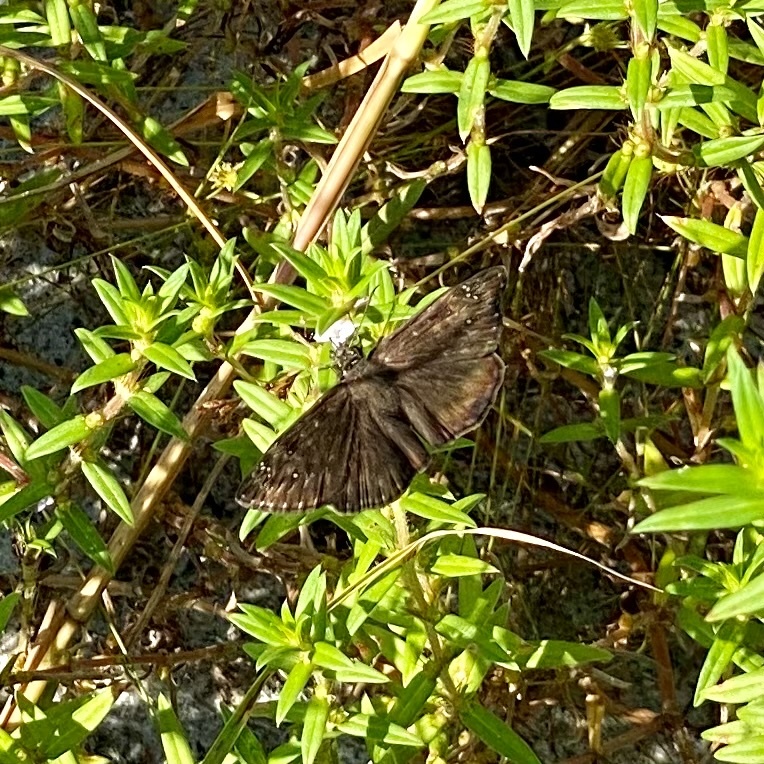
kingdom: Animalia
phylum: Arthropoda
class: Insecta
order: Lepidoptera
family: Hesperiidae
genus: Erynnis
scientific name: Erynnis horatius
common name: Horace's duskywing
